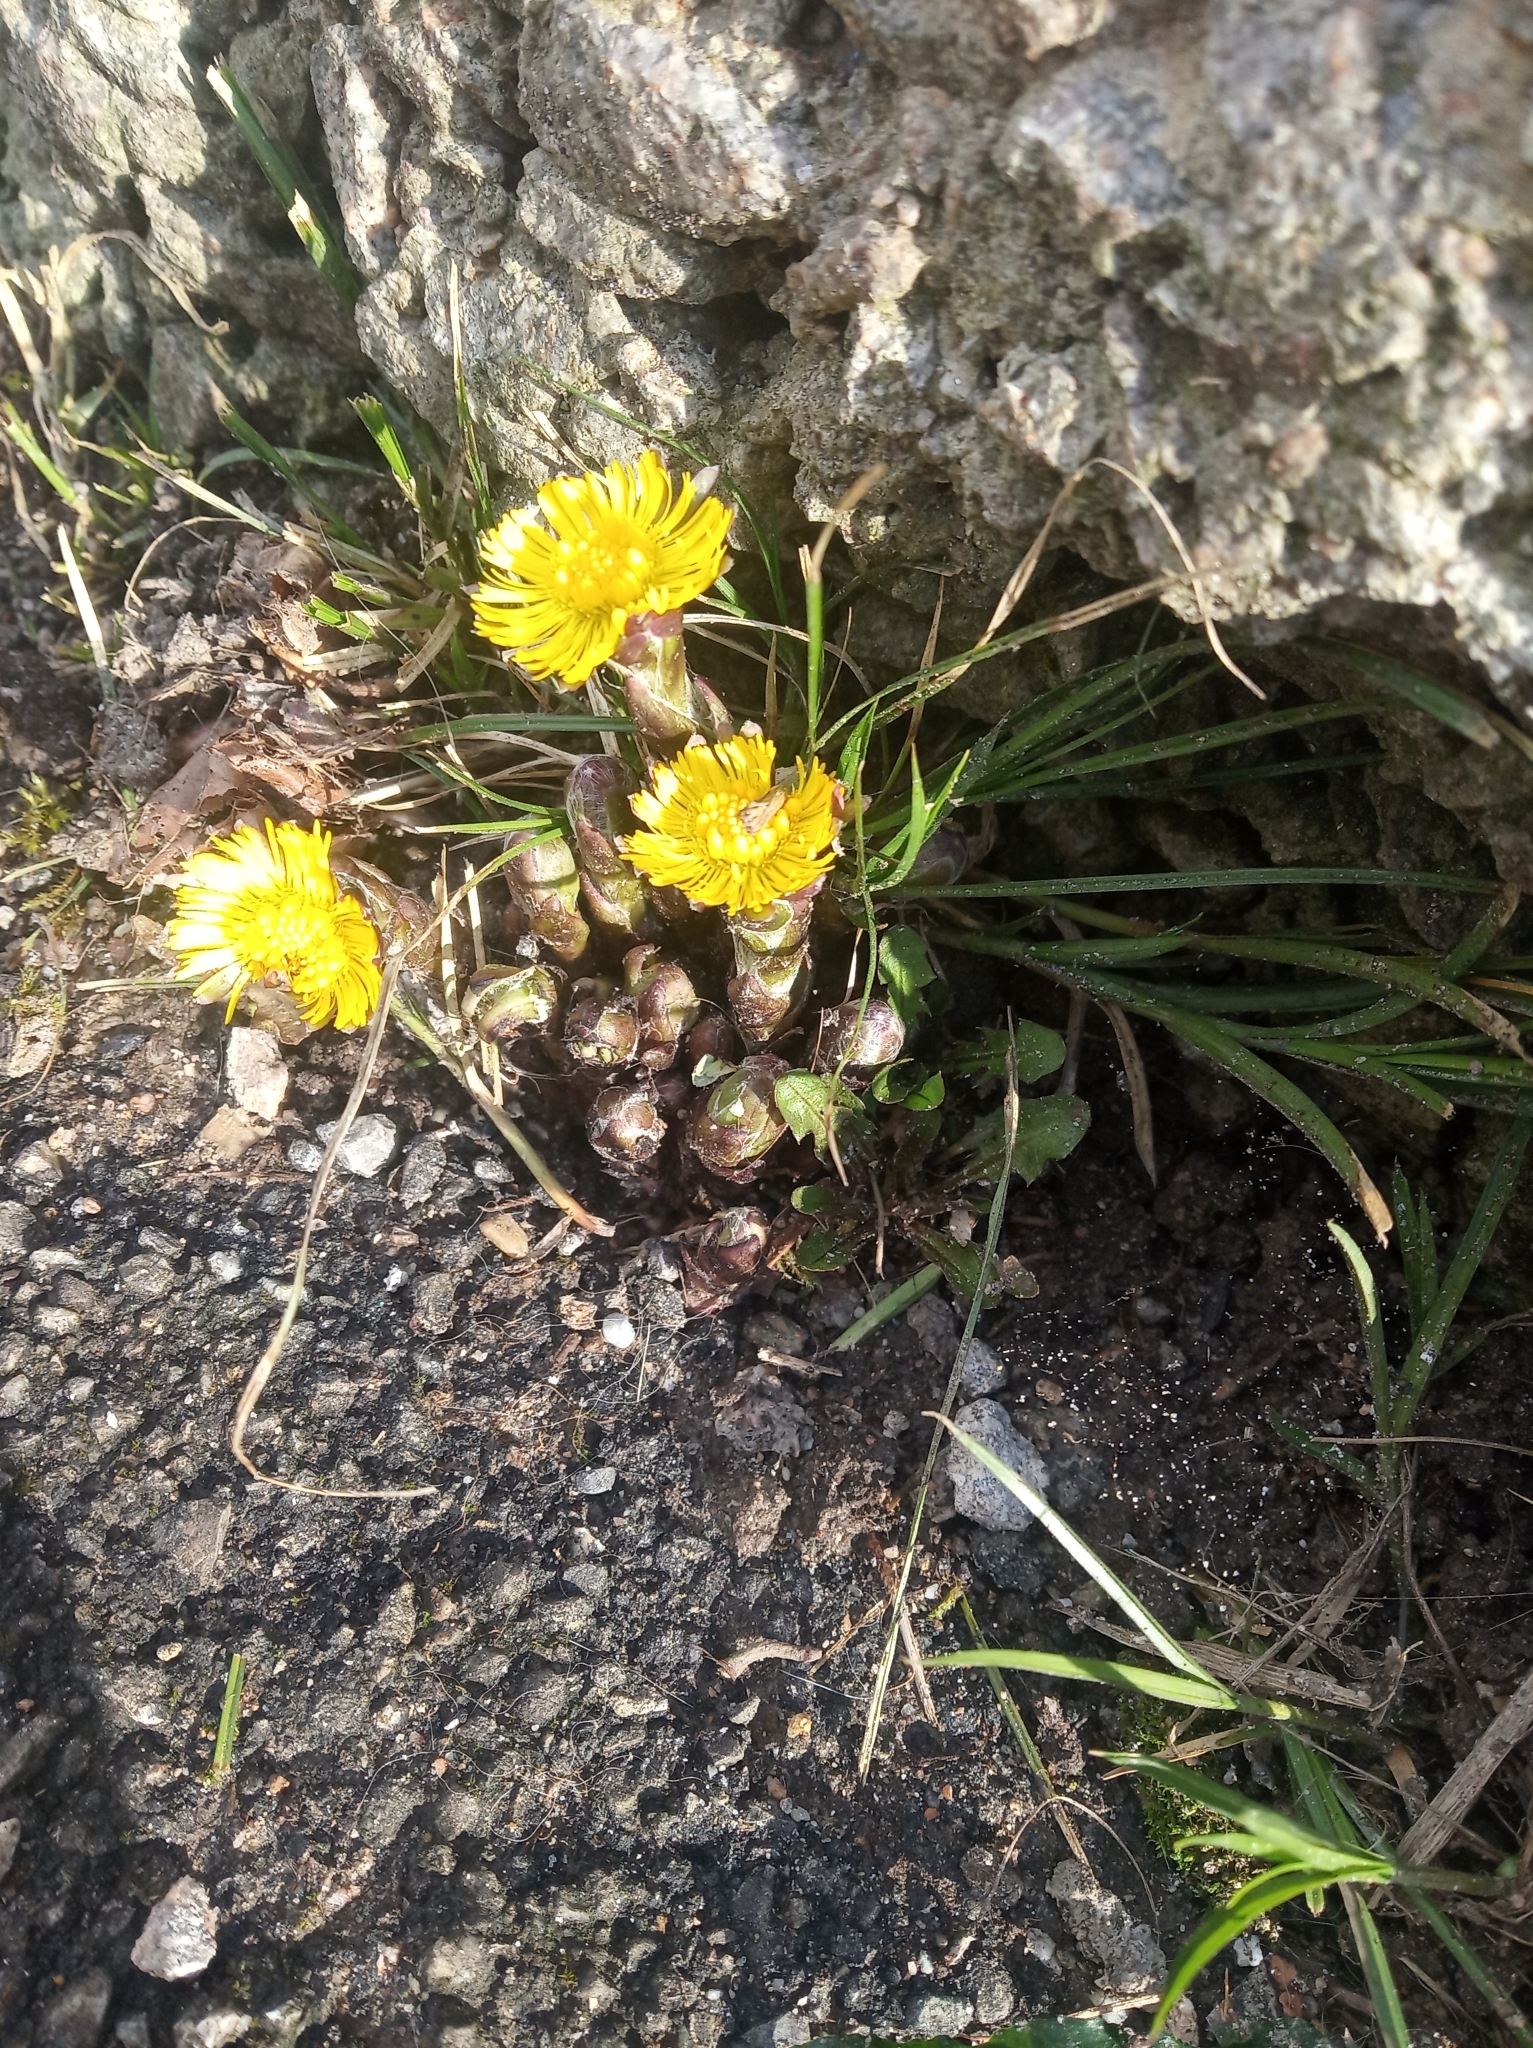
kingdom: Plantae
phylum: Tracheophyta
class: Magnoliopsida
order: Asterales
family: Asteraceae
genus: Tussilago
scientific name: Tussilago farfara
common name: Coltsfoot
